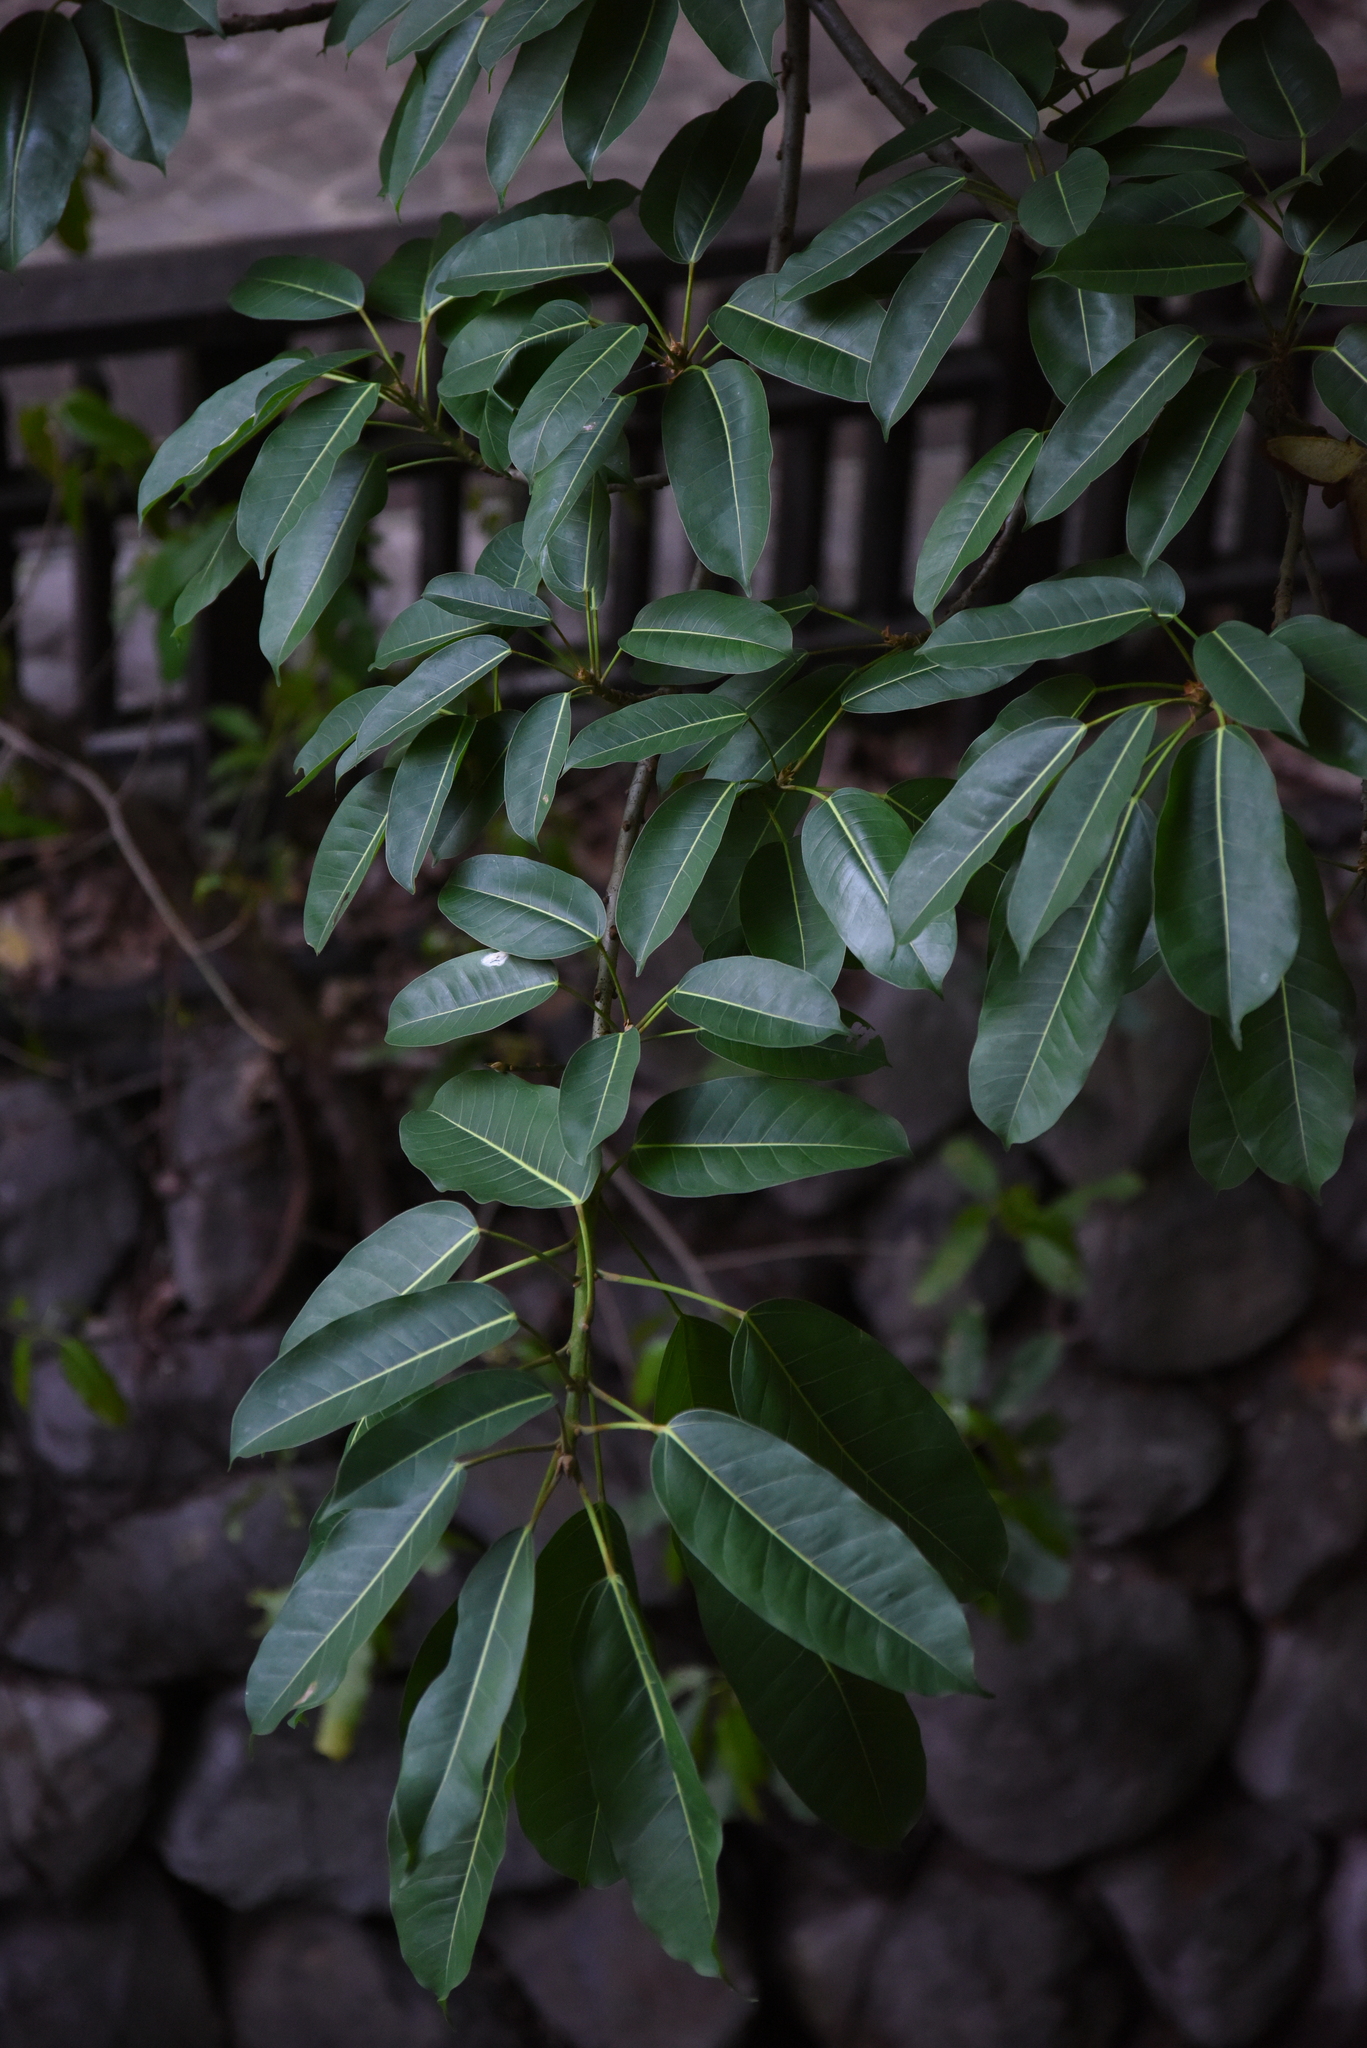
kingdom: Plantae
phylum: Tracheophyta
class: Magnoliopsida
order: Rosales
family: Moraceae
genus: Ficus
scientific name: Ficus caulocarpa
